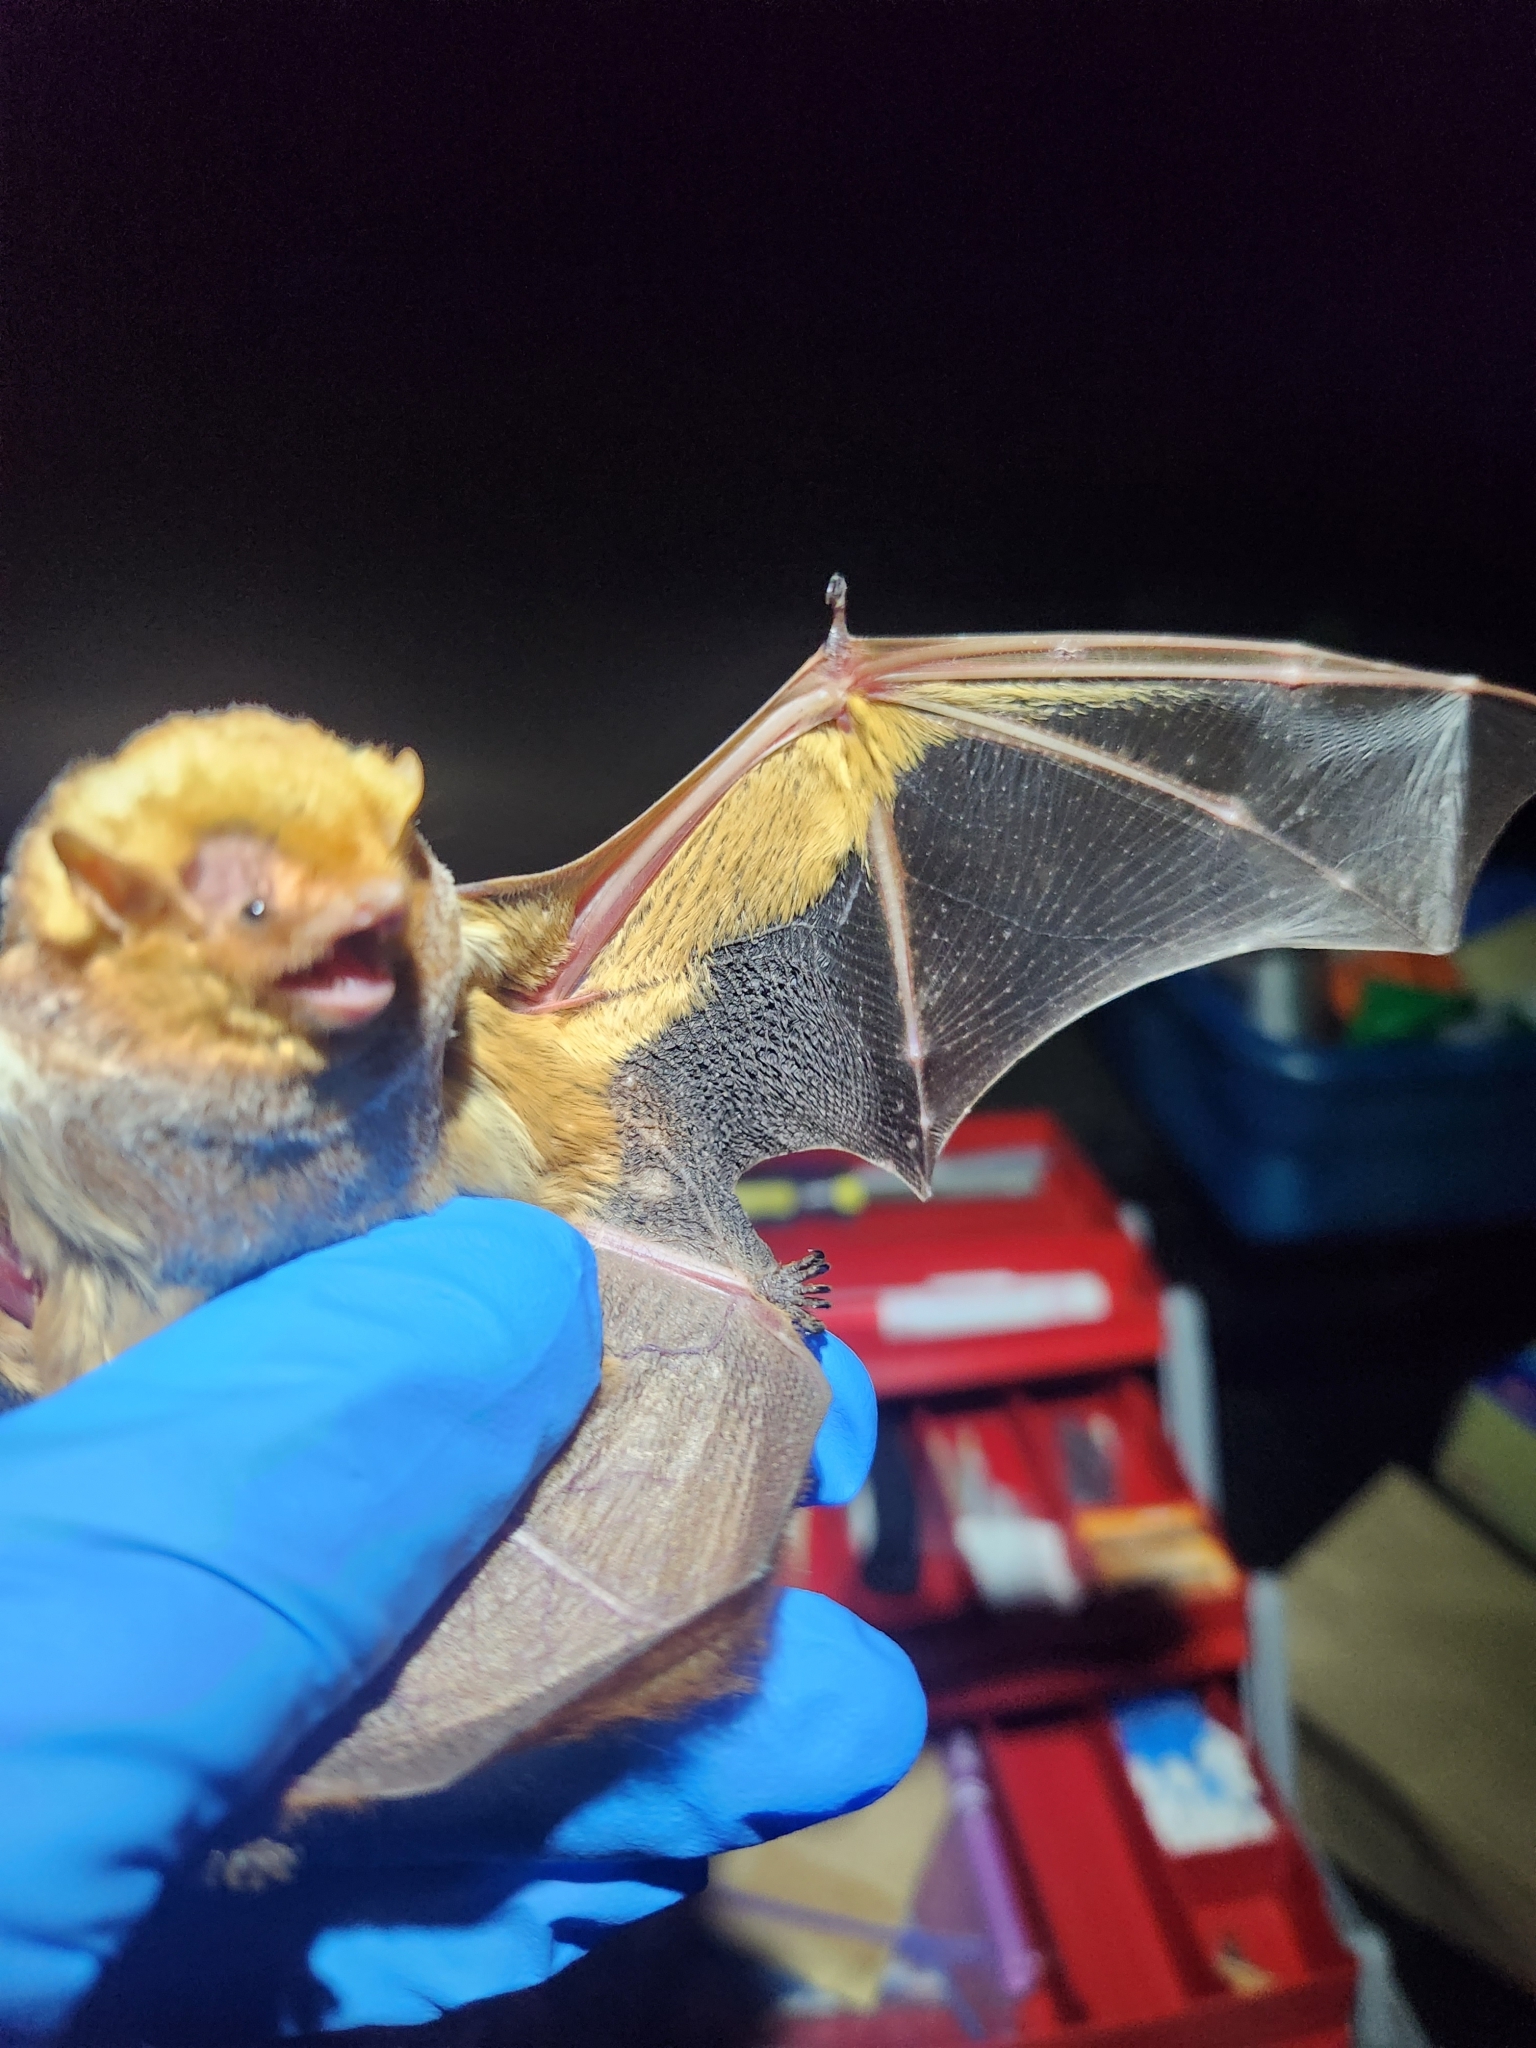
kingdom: Animalia
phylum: Chordata
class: Mammalia
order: Chiroptera
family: Vespertilionidae
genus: Lasiurus
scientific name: Lasiurus borealis
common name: Eastern red bat
